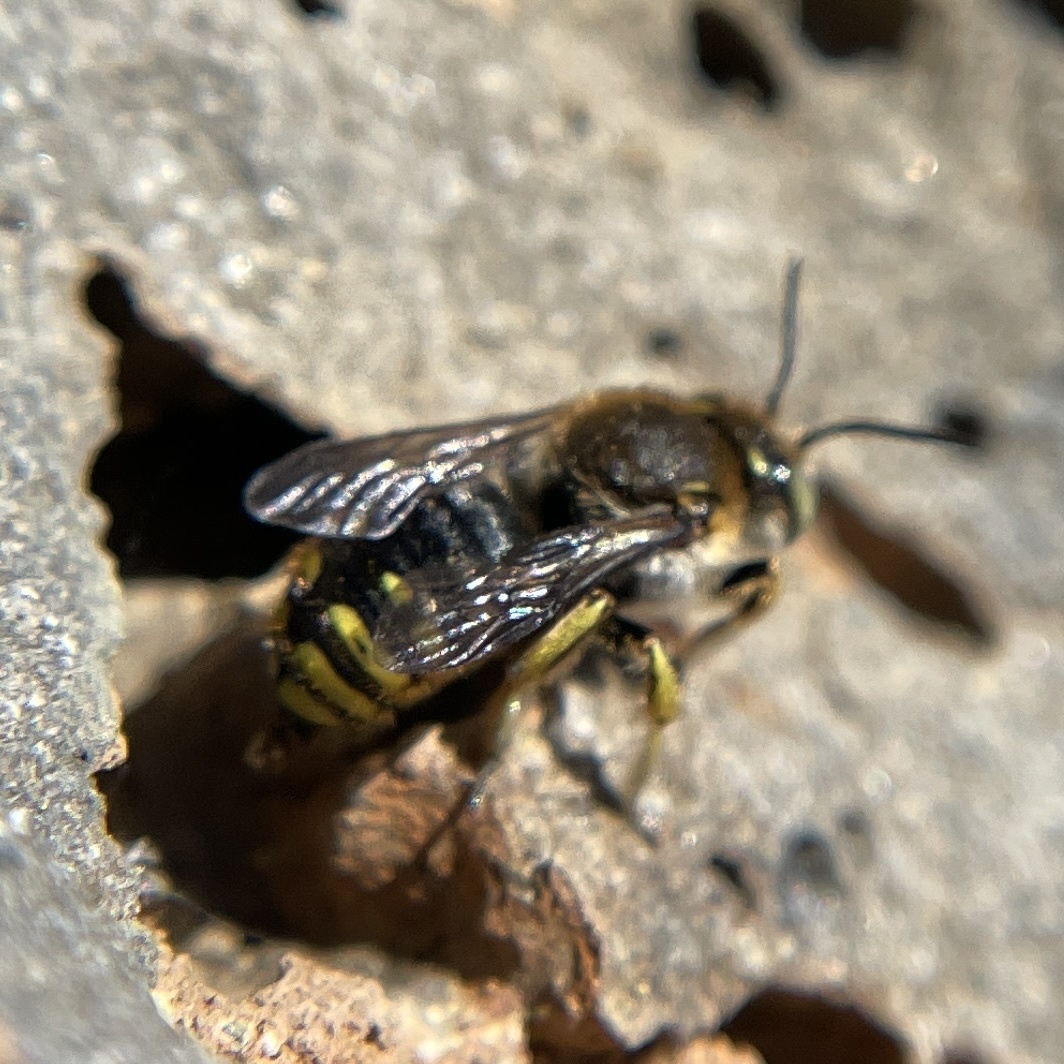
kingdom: Animalia
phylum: Arthropoda
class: Insecta
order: Hymenoptera
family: Megachilidae
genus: Anthidium
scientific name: Anthidium manicatum
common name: Wool carder bee
